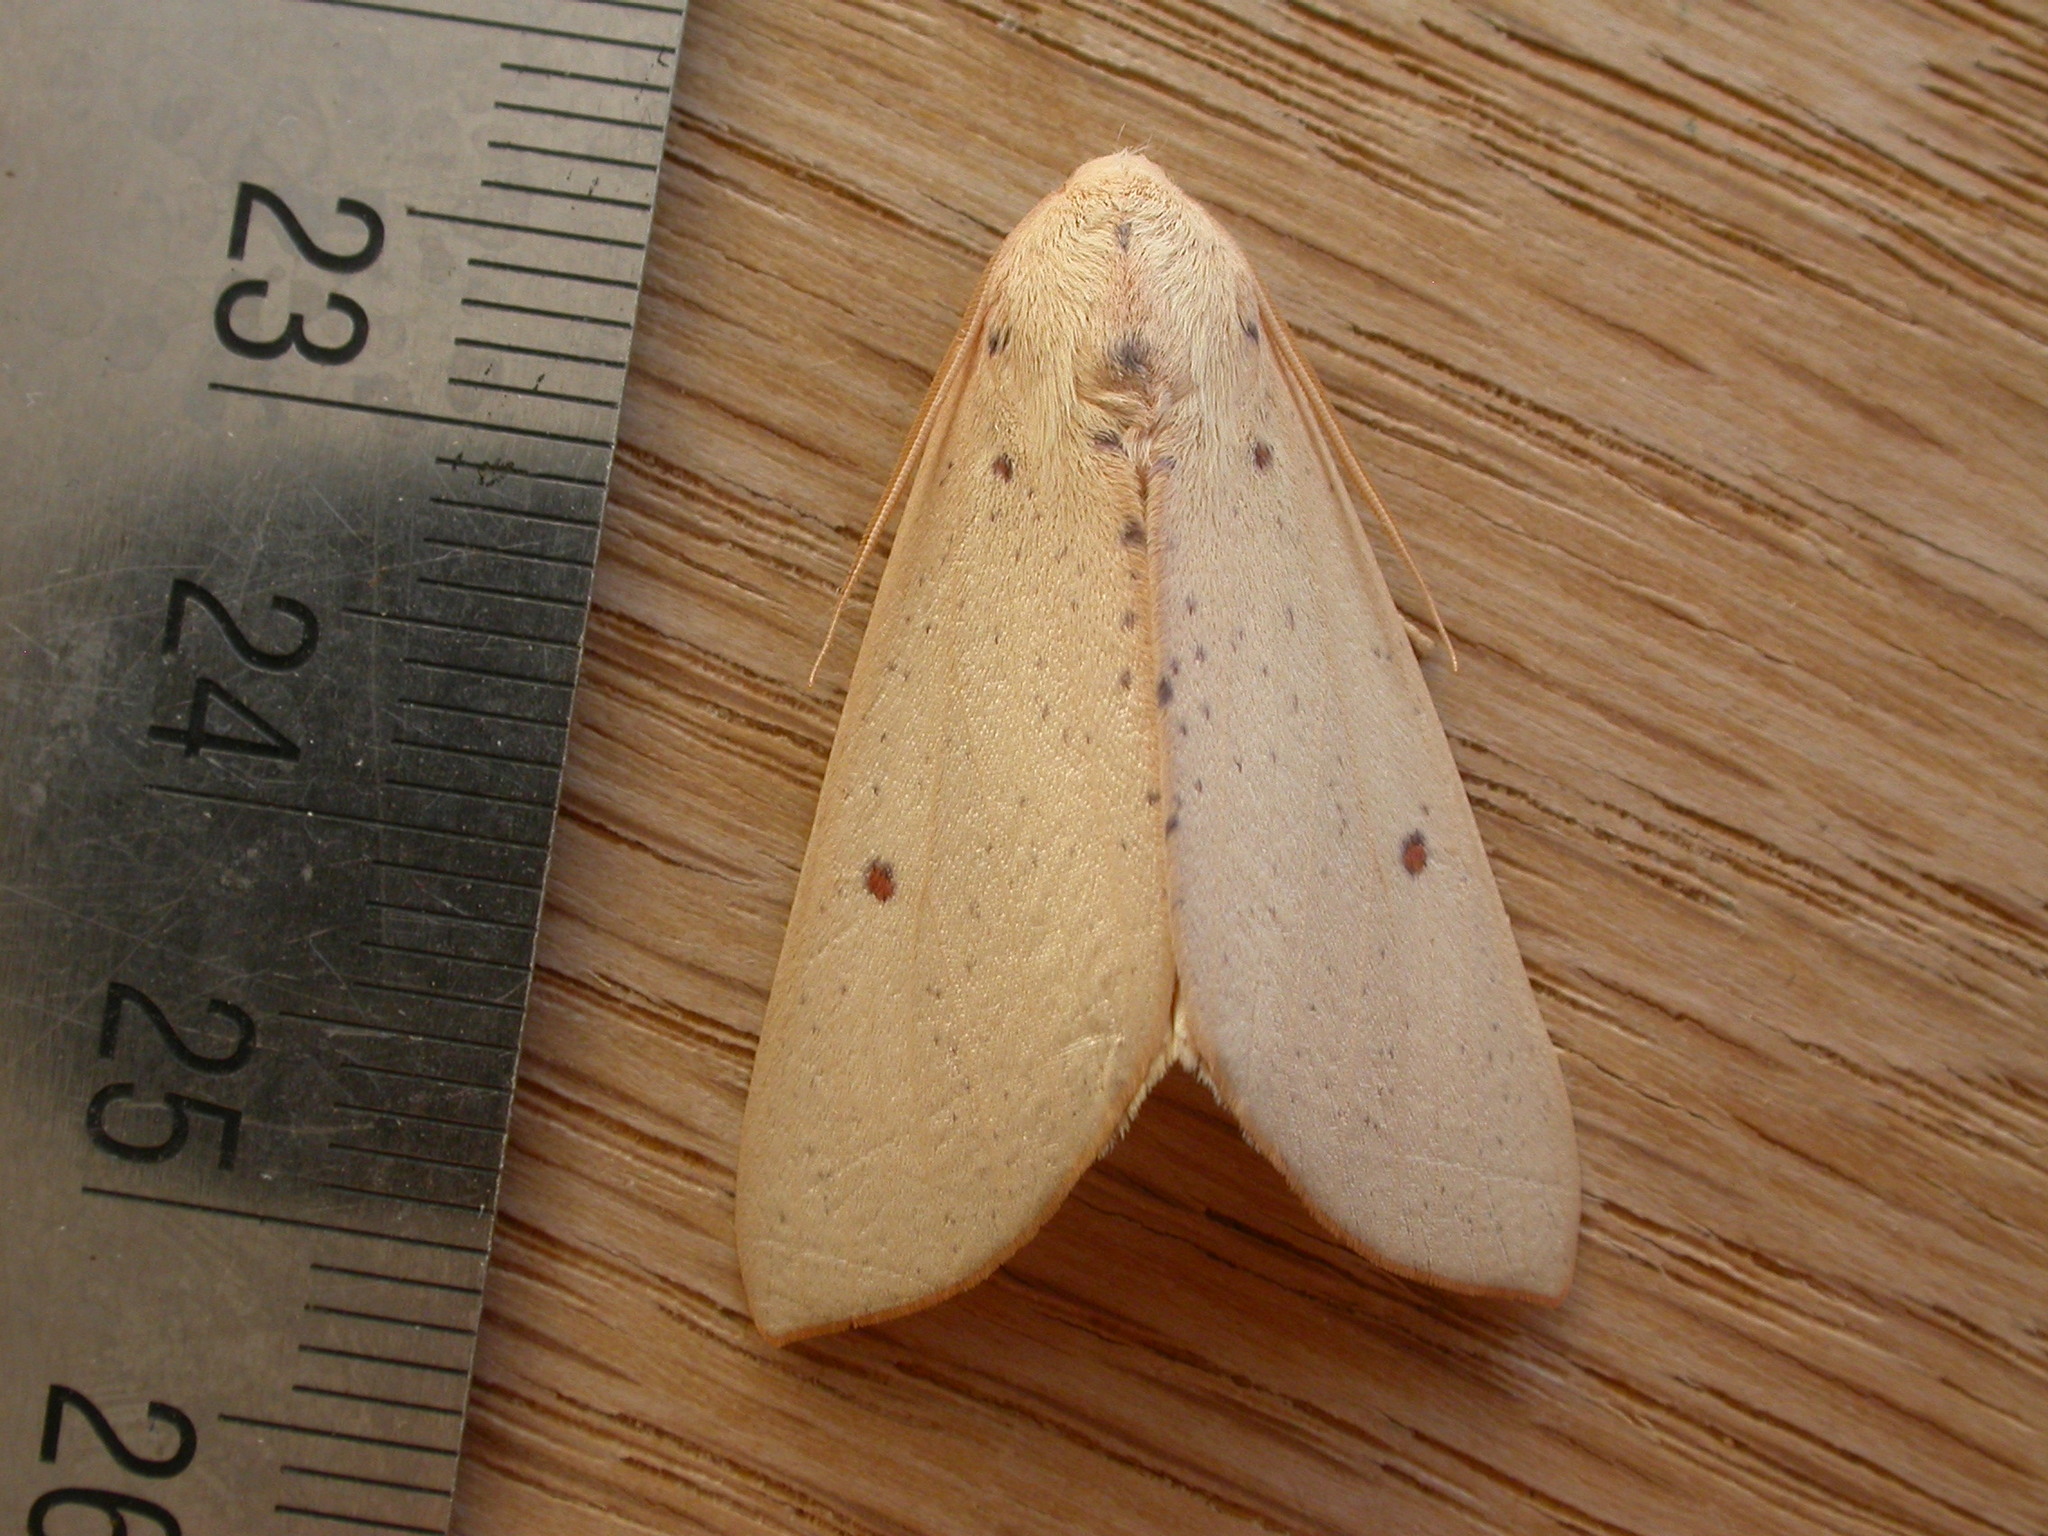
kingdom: Animalia
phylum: Arthropoda
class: Insecta
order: Lepidoptera
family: Geometridae
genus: Plesanemma
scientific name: Plesanemma fucata
